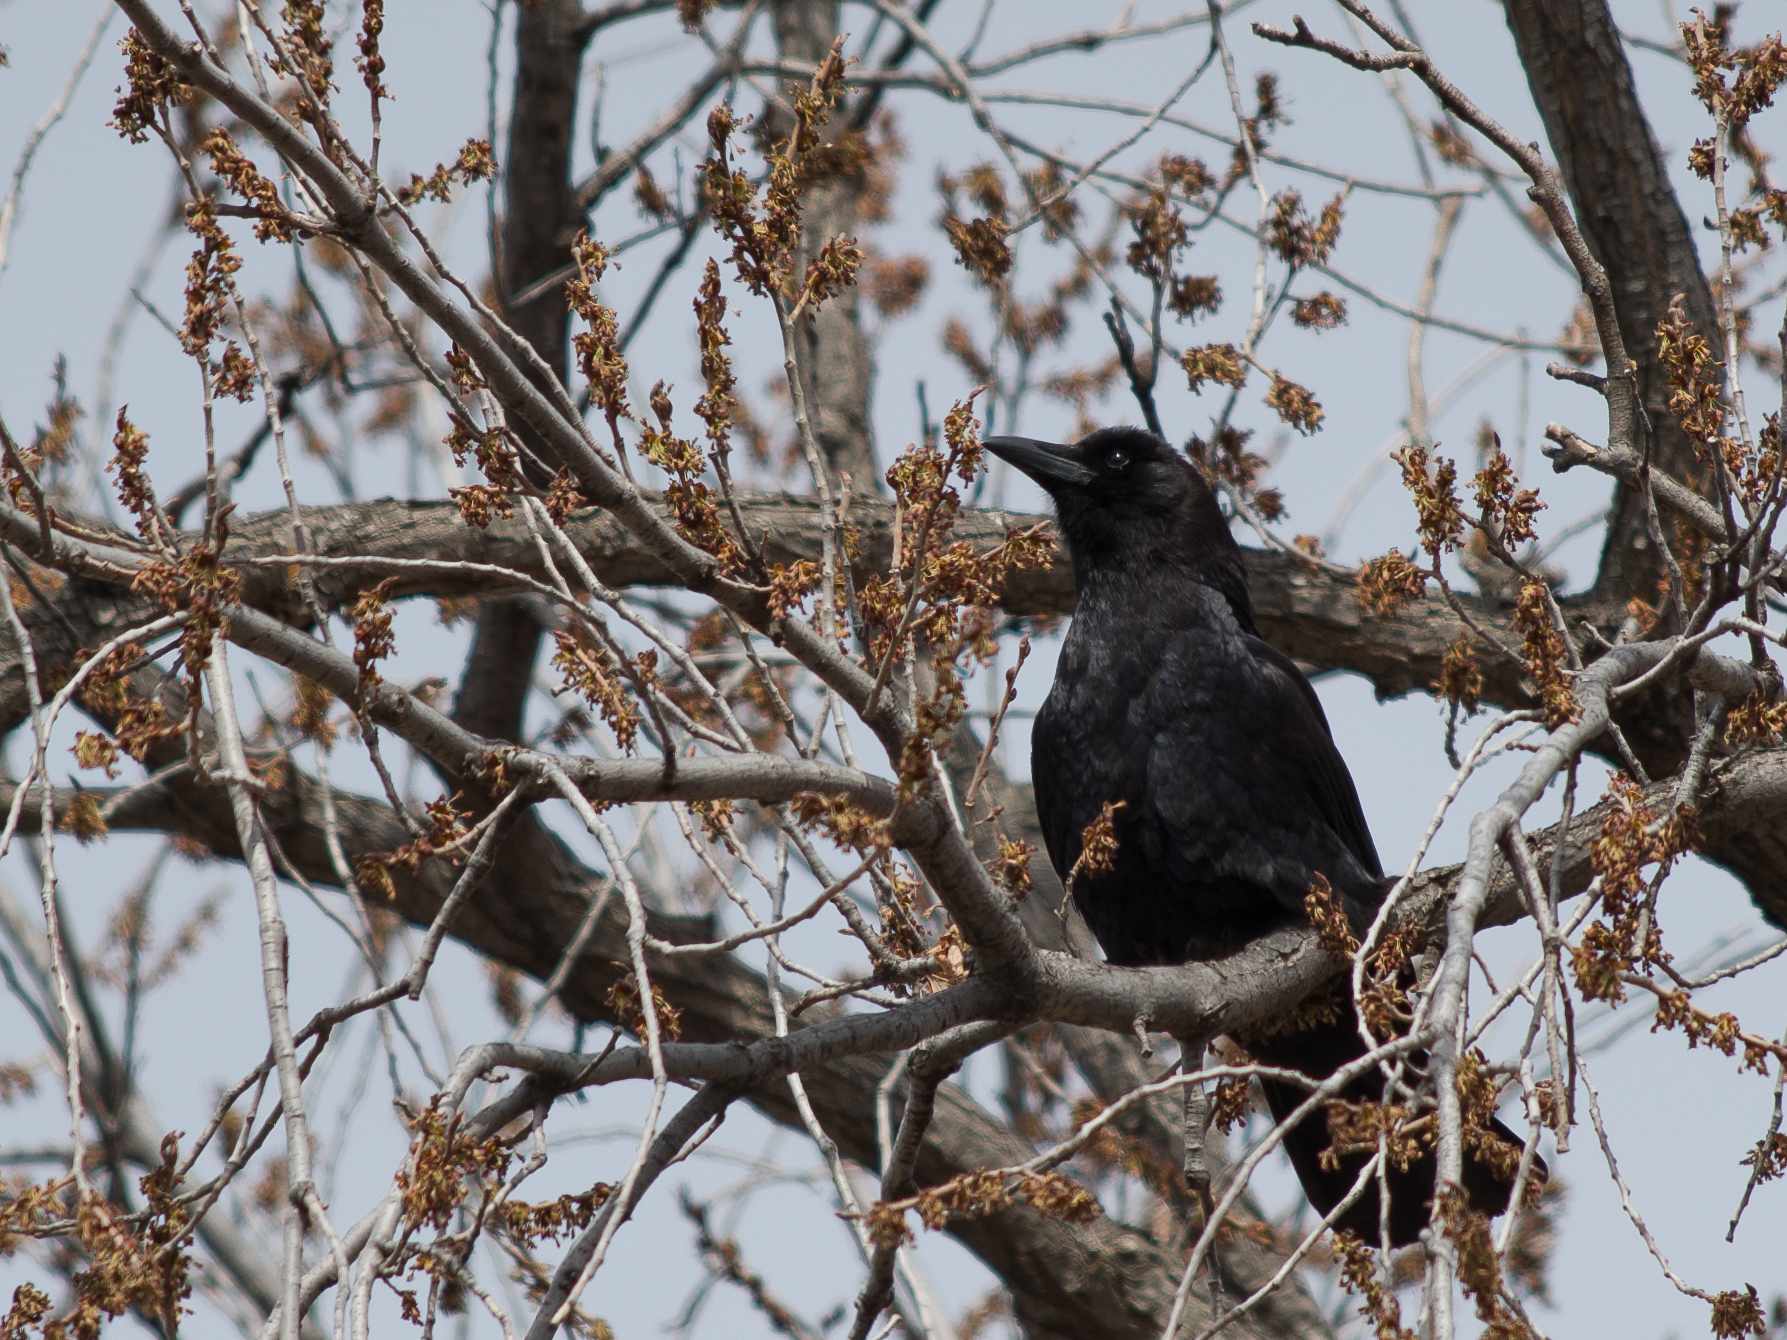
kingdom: Animalia
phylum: Chordata
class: Aves
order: Passeriformes
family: Corvidae
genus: Corvus
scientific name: Corvus brachyrhynchos
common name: American crow
